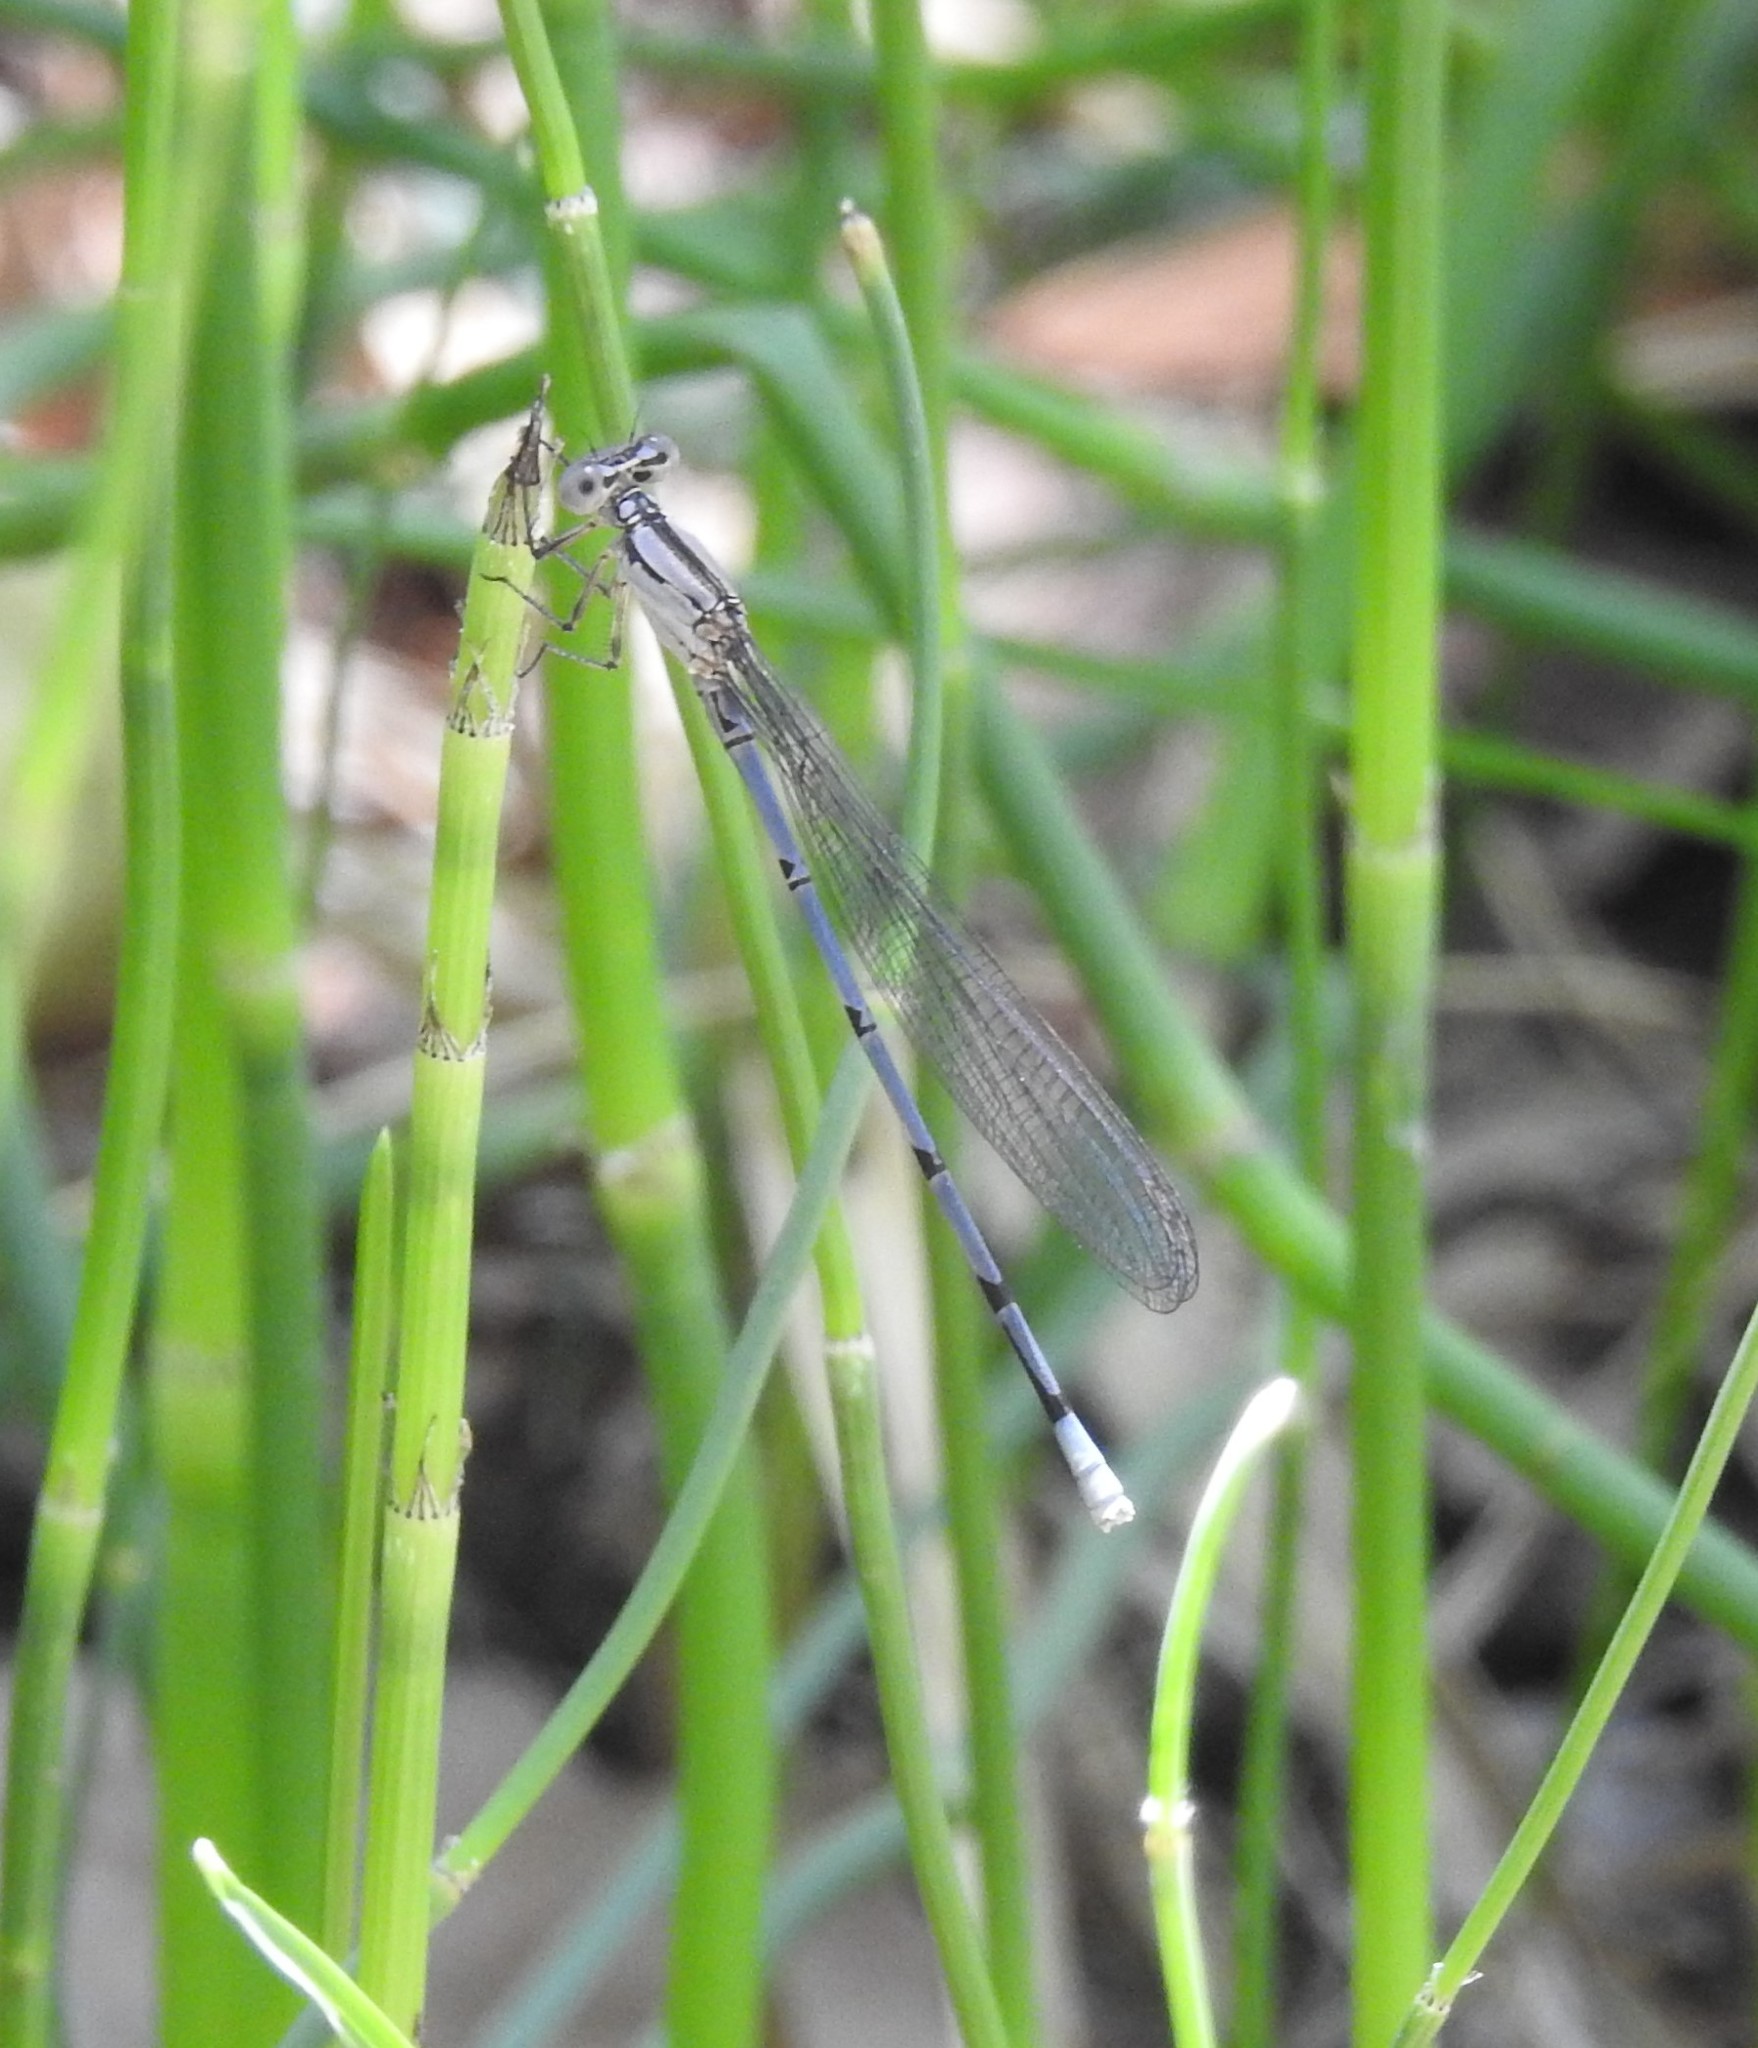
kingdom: Animalia
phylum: Arthropoda
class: Insecta
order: Odonata
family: Coenagrionidae
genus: Argia
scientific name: Argia lacrimans
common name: Sierra madre dancer
